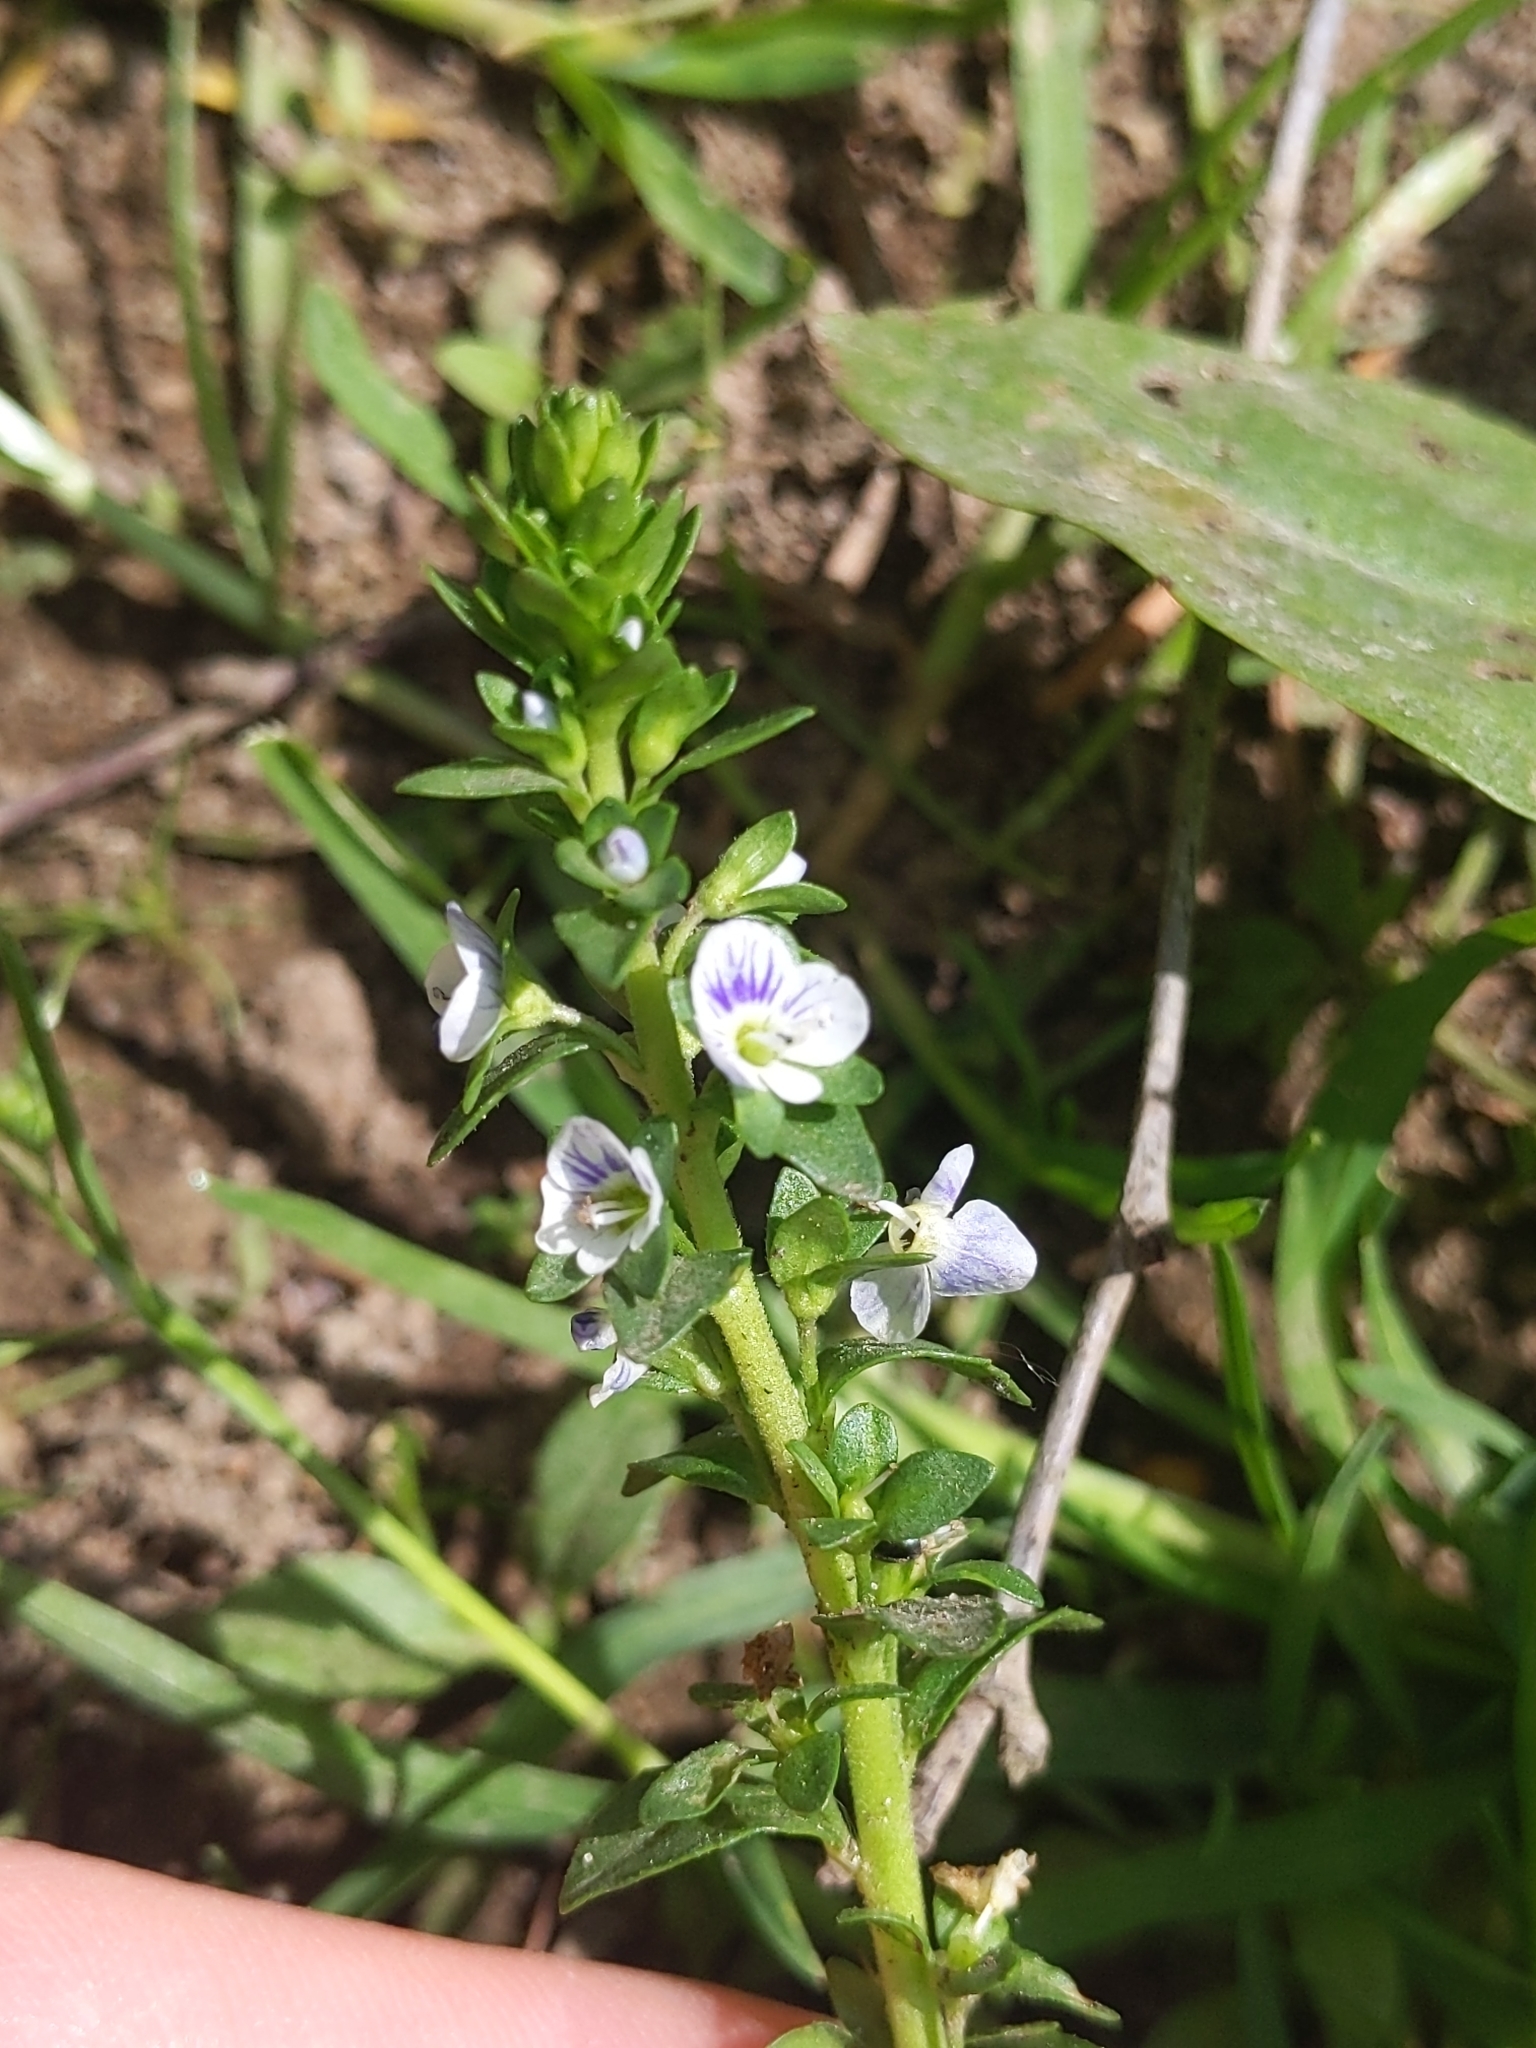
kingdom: Plantae
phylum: Tracheophyta
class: Magnoliopsida
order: Lamiales
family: Plantaginaceae
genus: Veronica
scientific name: Veronica serpyllifolia
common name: Thyme-leaved speedwell
